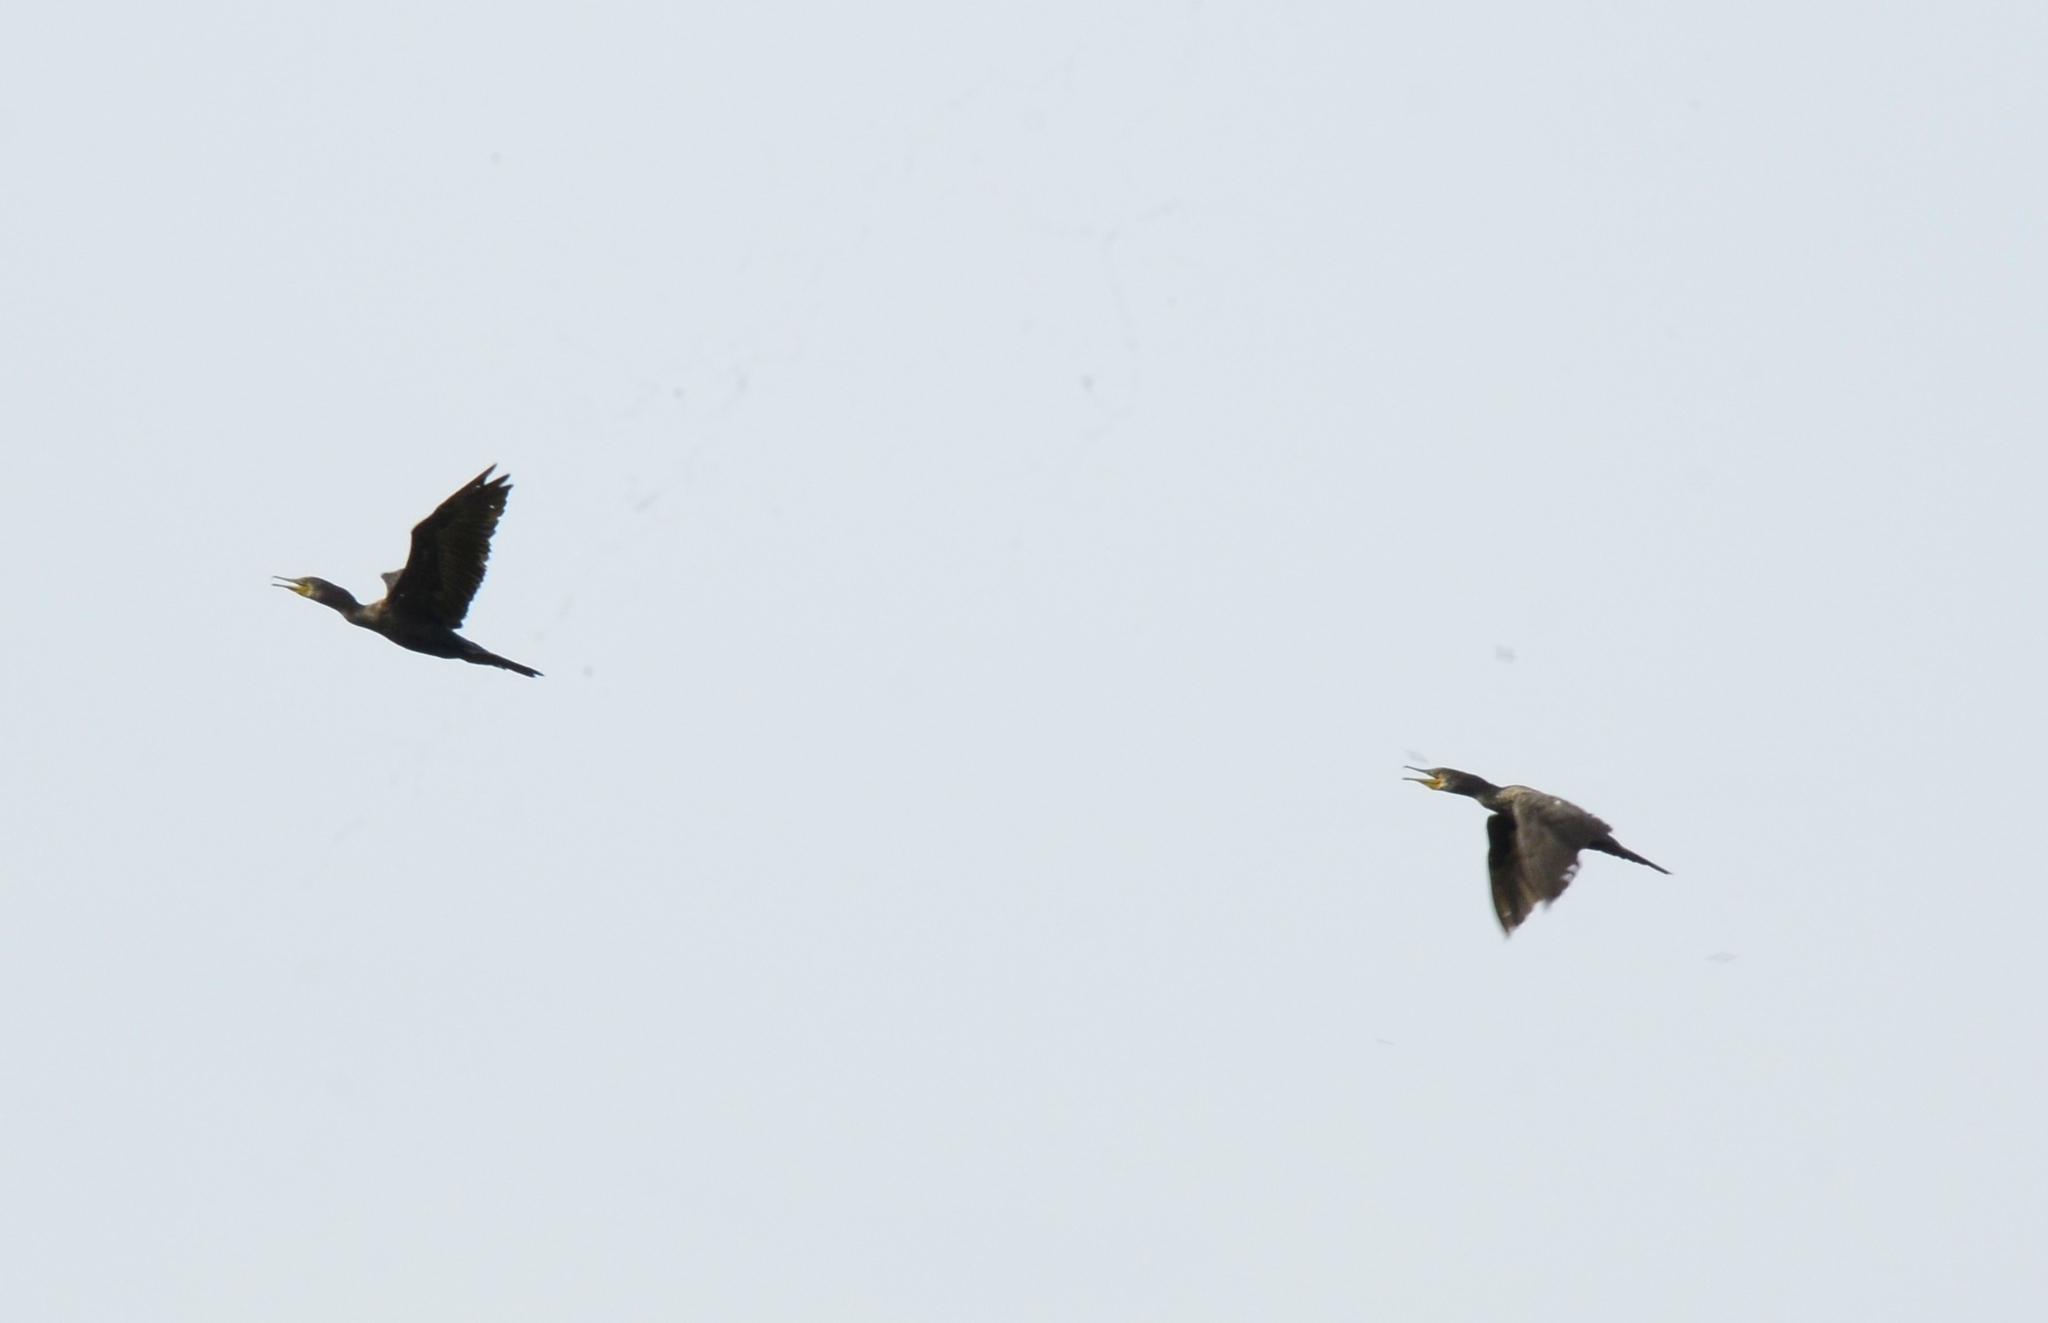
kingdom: Animalia
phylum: Chordata
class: Aves
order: Suliformes
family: Phalacrocoracidae
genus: Phalacrocorax
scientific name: Phalacrocorax fuscicollis
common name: Indian cormorant
